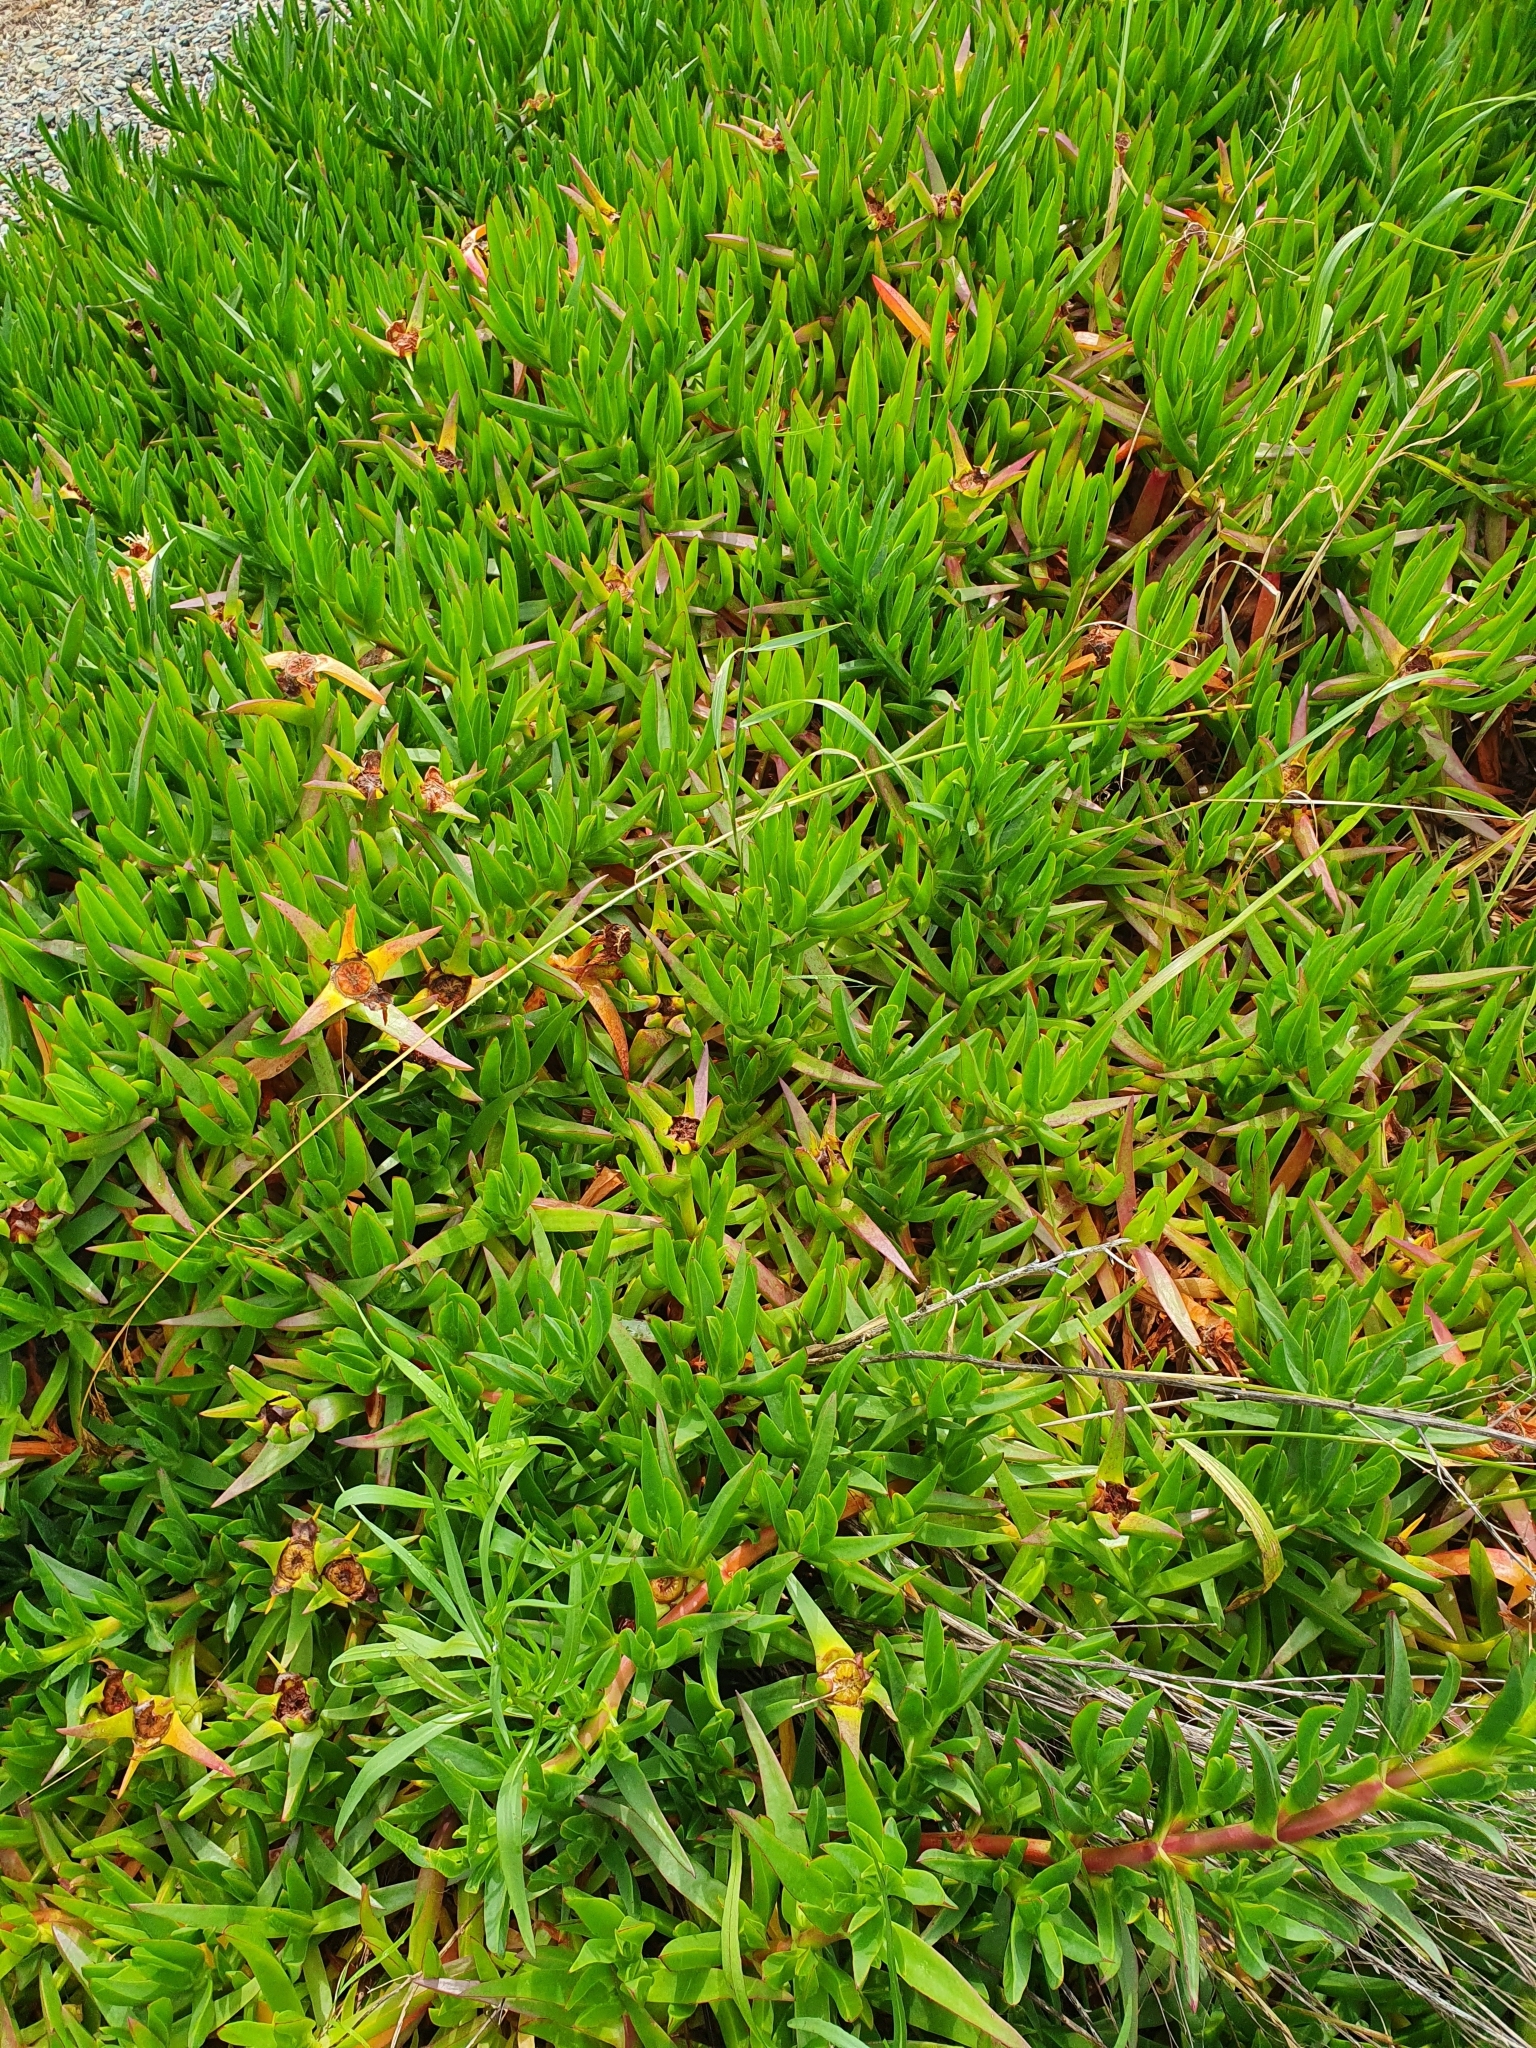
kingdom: Plantae
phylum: Tracheophyta
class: Magnoliopsida
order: Caryophyllales
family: Aizoaceae
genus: Carpobrotus
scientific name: Carpobrotus edulis
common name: Hottentot-fig
